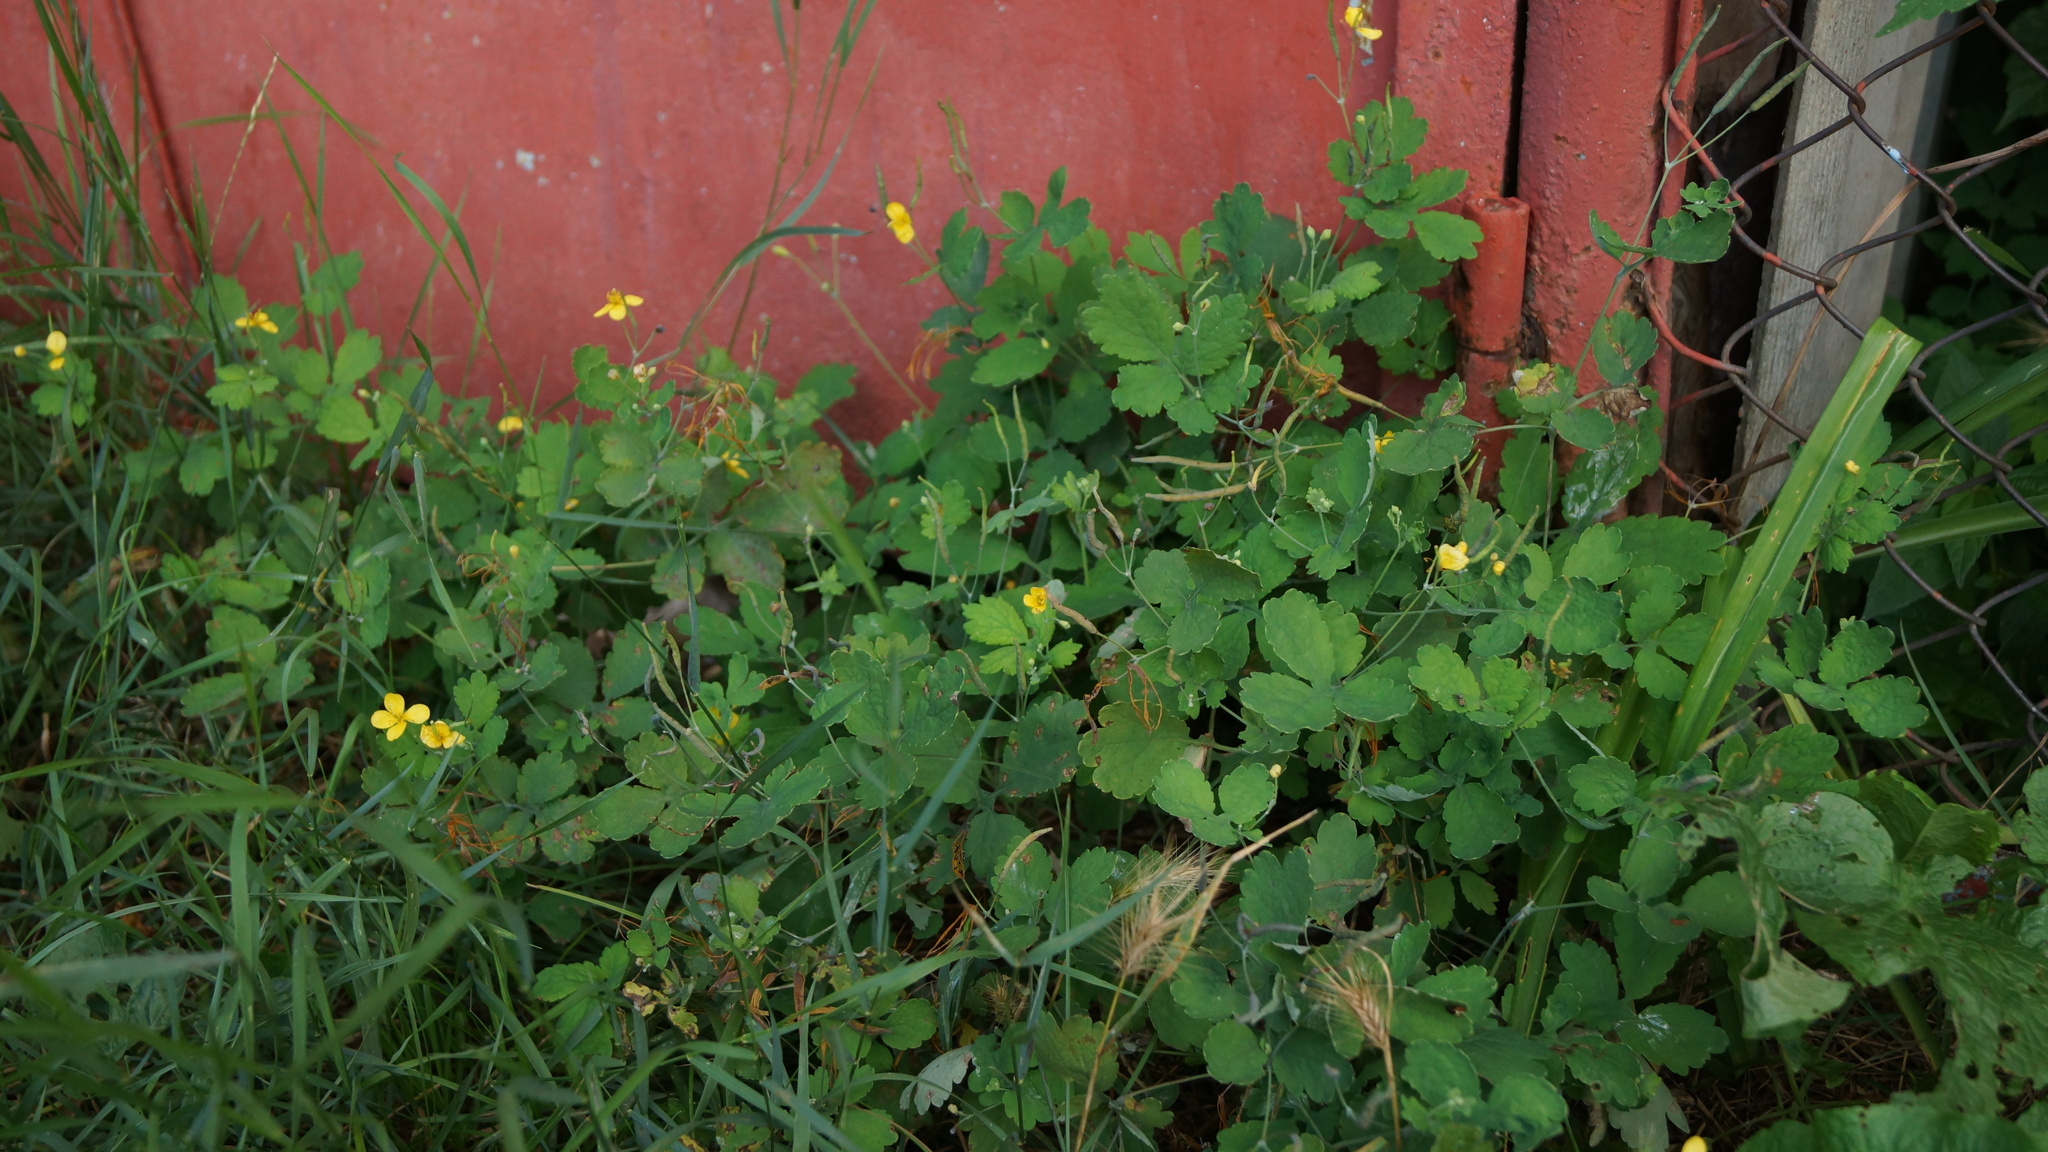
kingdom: Plantae
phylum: Tracheophyta
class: Magnoliopsida
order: Ranunculales
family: Papaveraceae
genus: Chelidonium
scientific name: Chelidonium majus
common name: Greater celandine
